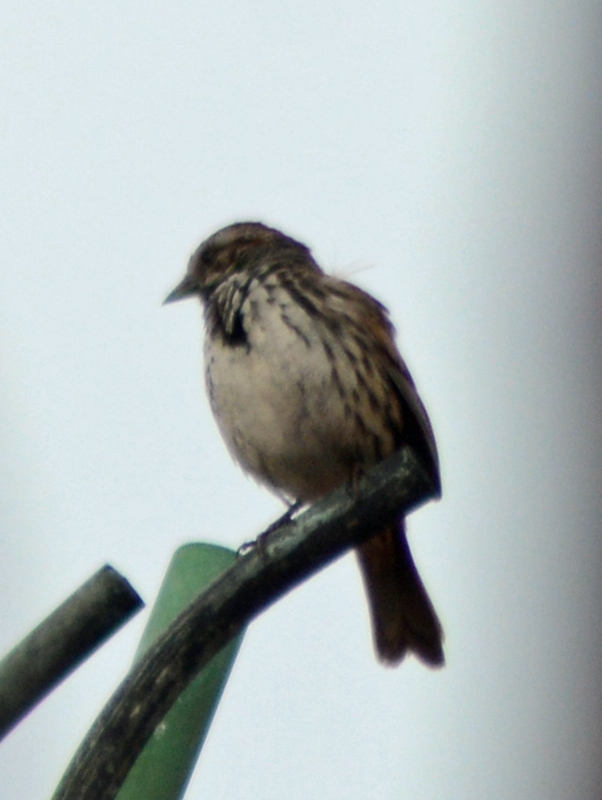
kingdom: Animalia
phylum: Chordata
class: Aves
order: Passeriformes
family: Passerellidae
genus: Melospiza
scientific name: Melospiza melodia
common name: Song sparrow
